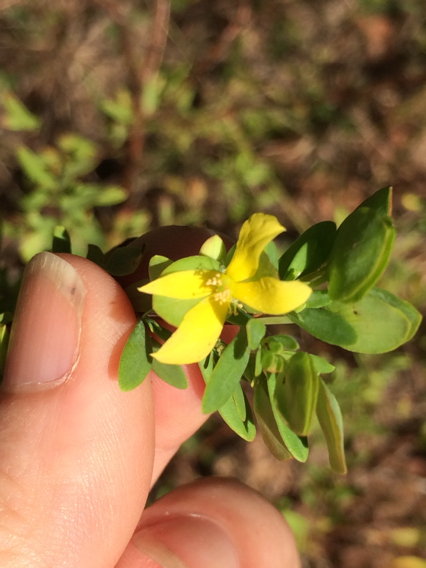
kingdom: Plantae
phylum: Tracheophyta
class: Magnoliopsida
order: Malpighiales
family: Hypericaceae
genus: Hypericum
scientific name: Hypericum hypericoides
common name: St. andrew's cross
